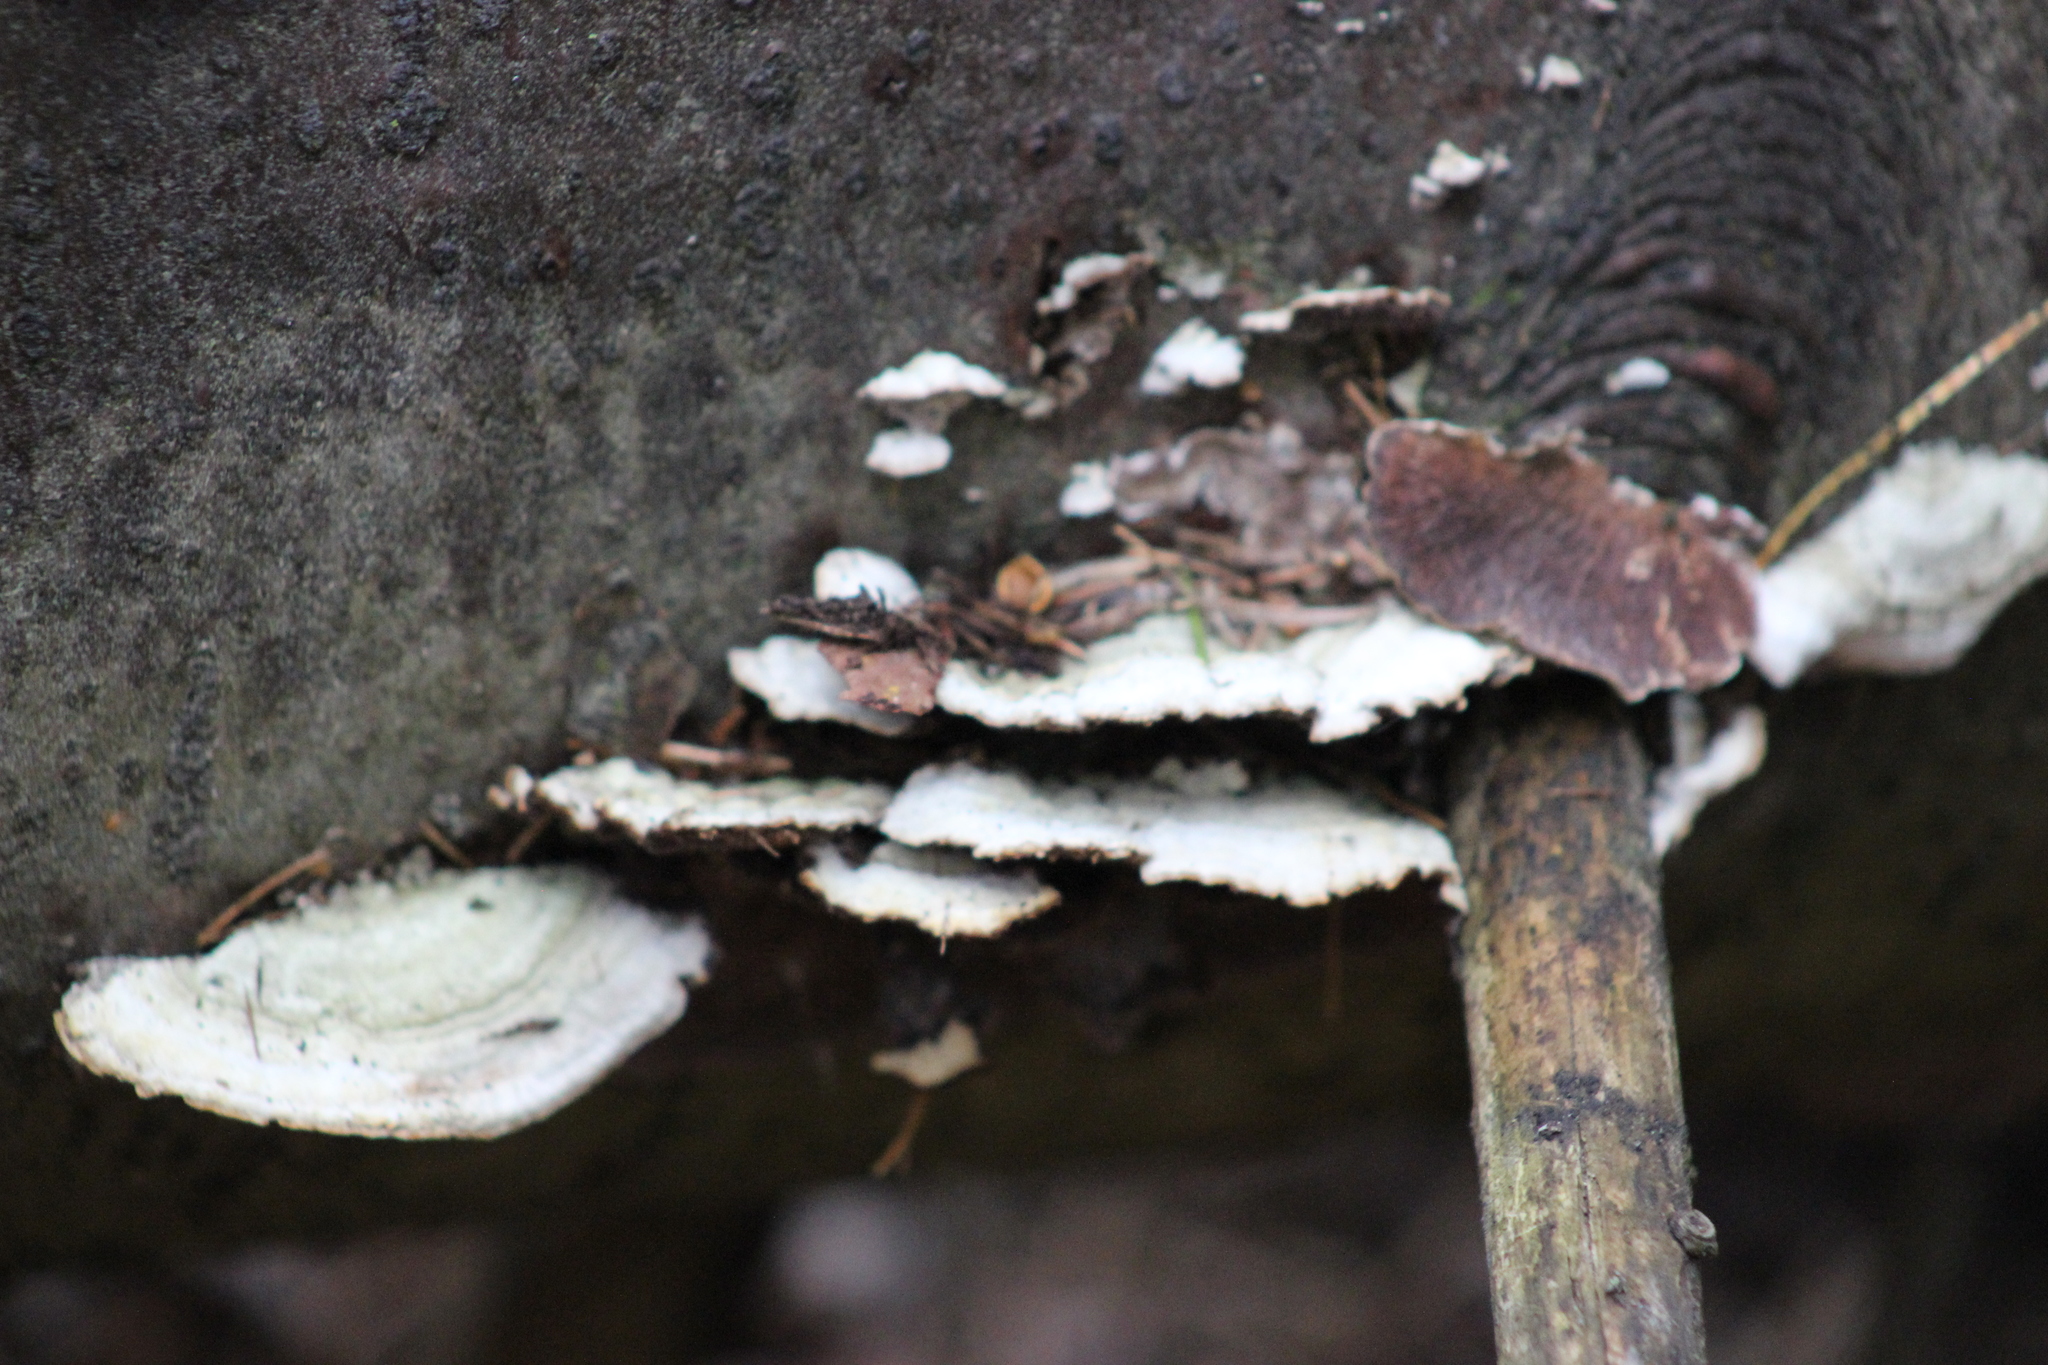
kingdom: Fungi
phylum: Basidiomycota
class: Agaricomycetes
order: Hymenochaetales
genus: Trichaptum
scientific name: Trichaptum fuscoviolaceum
